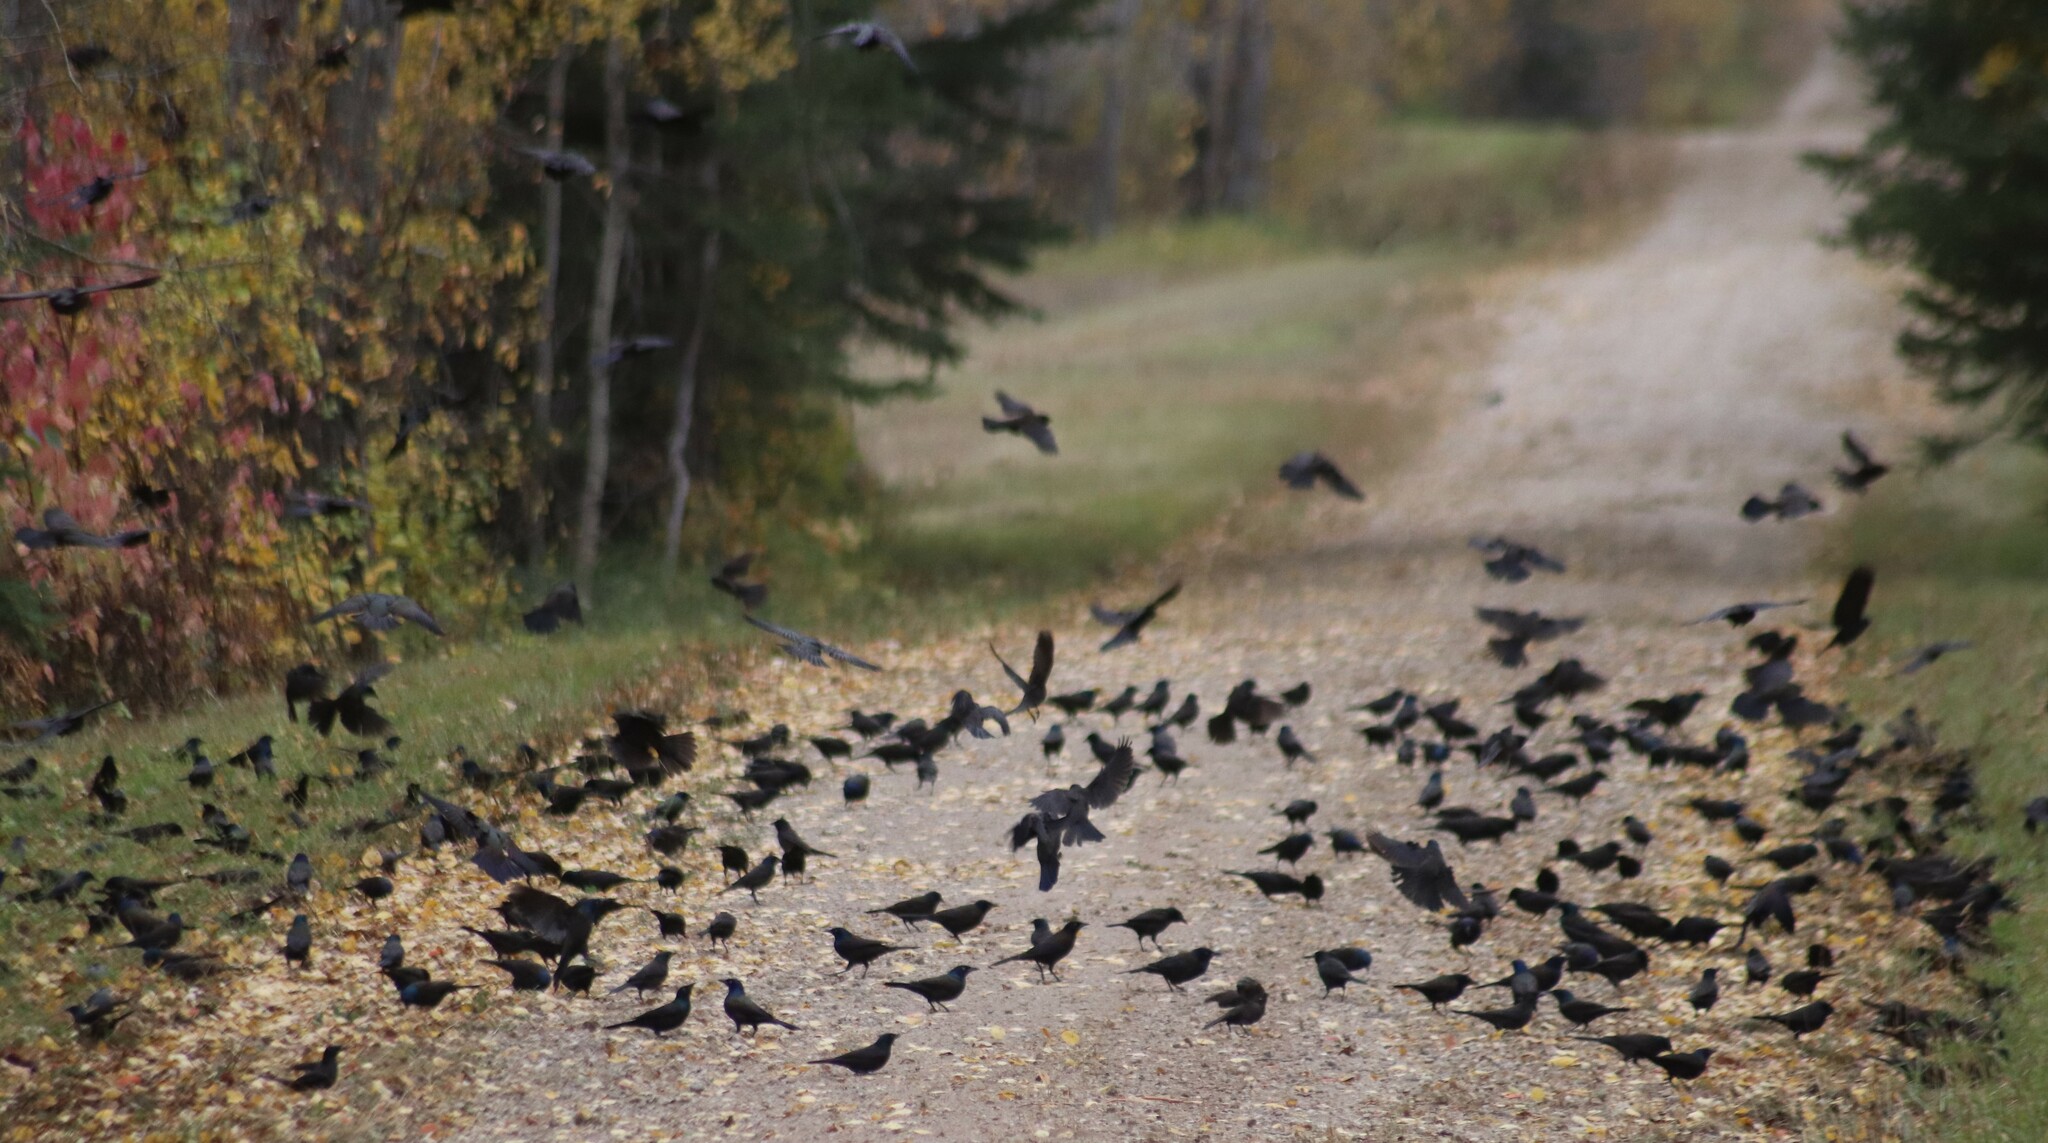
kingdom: Animalia
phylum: Chordata
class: Aves
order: Passeriformes
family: Icteridae
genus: Quiscalus
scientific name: Quiscalus quiscula
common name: Common grackle
